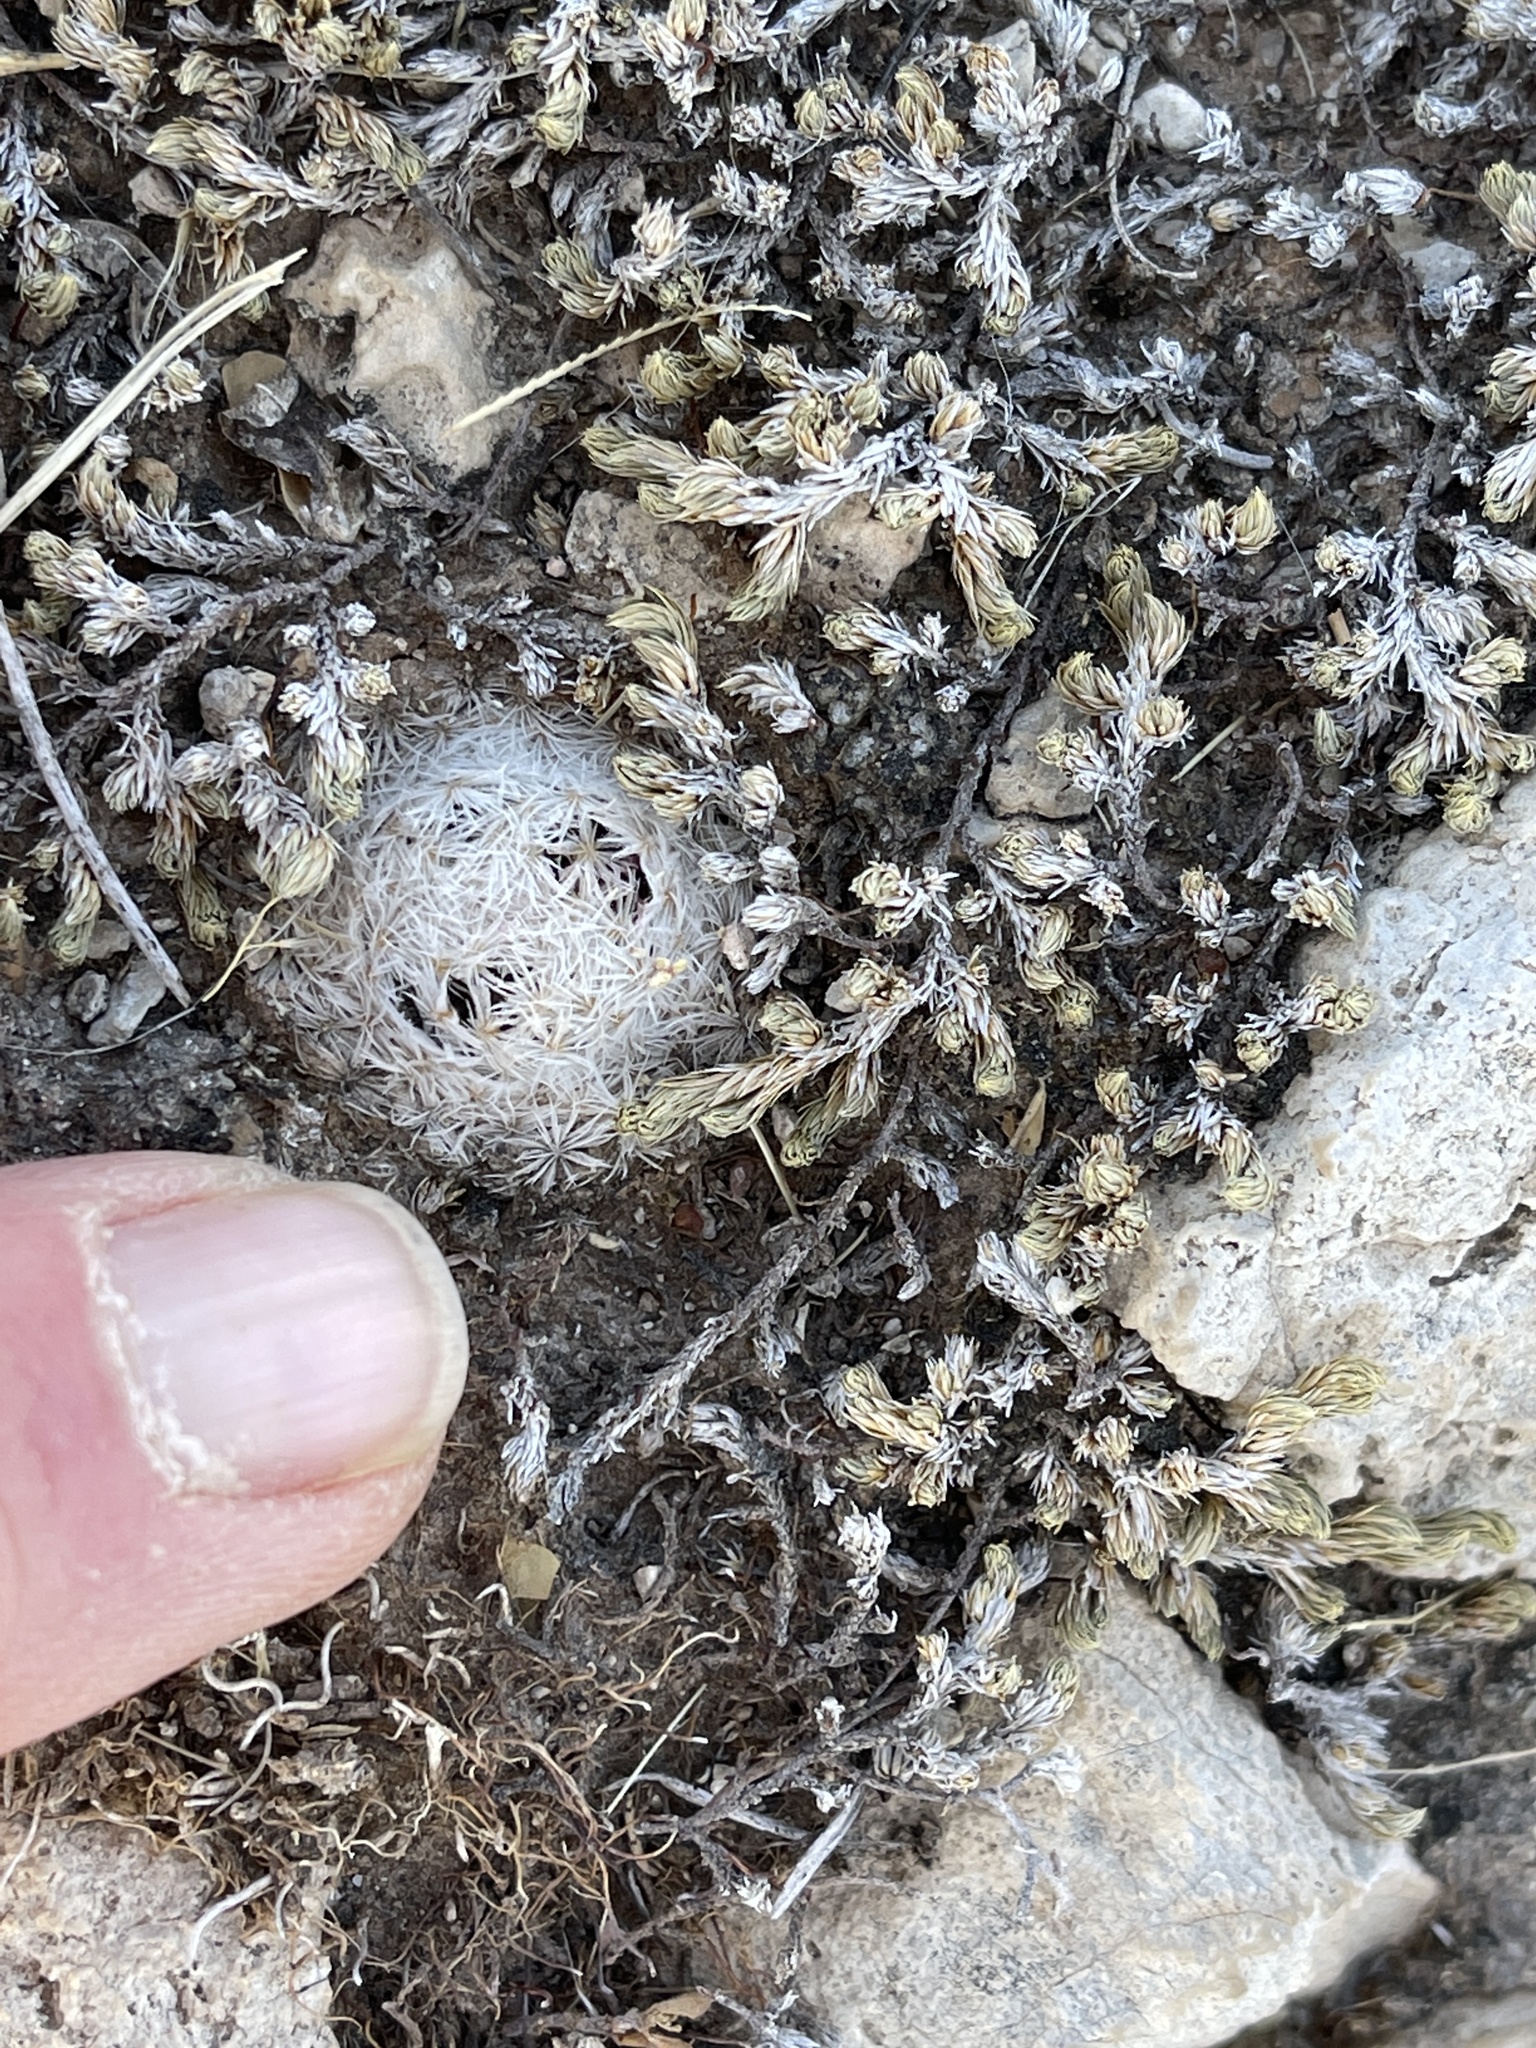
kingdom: Plantae
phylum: Tracheophyta
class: Magnoliopsida
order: Caryophyllales
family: Cactaceae
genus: Mammillaria
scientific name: Mammillaria lasiacantha
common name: Lace-spine nipple cactus
